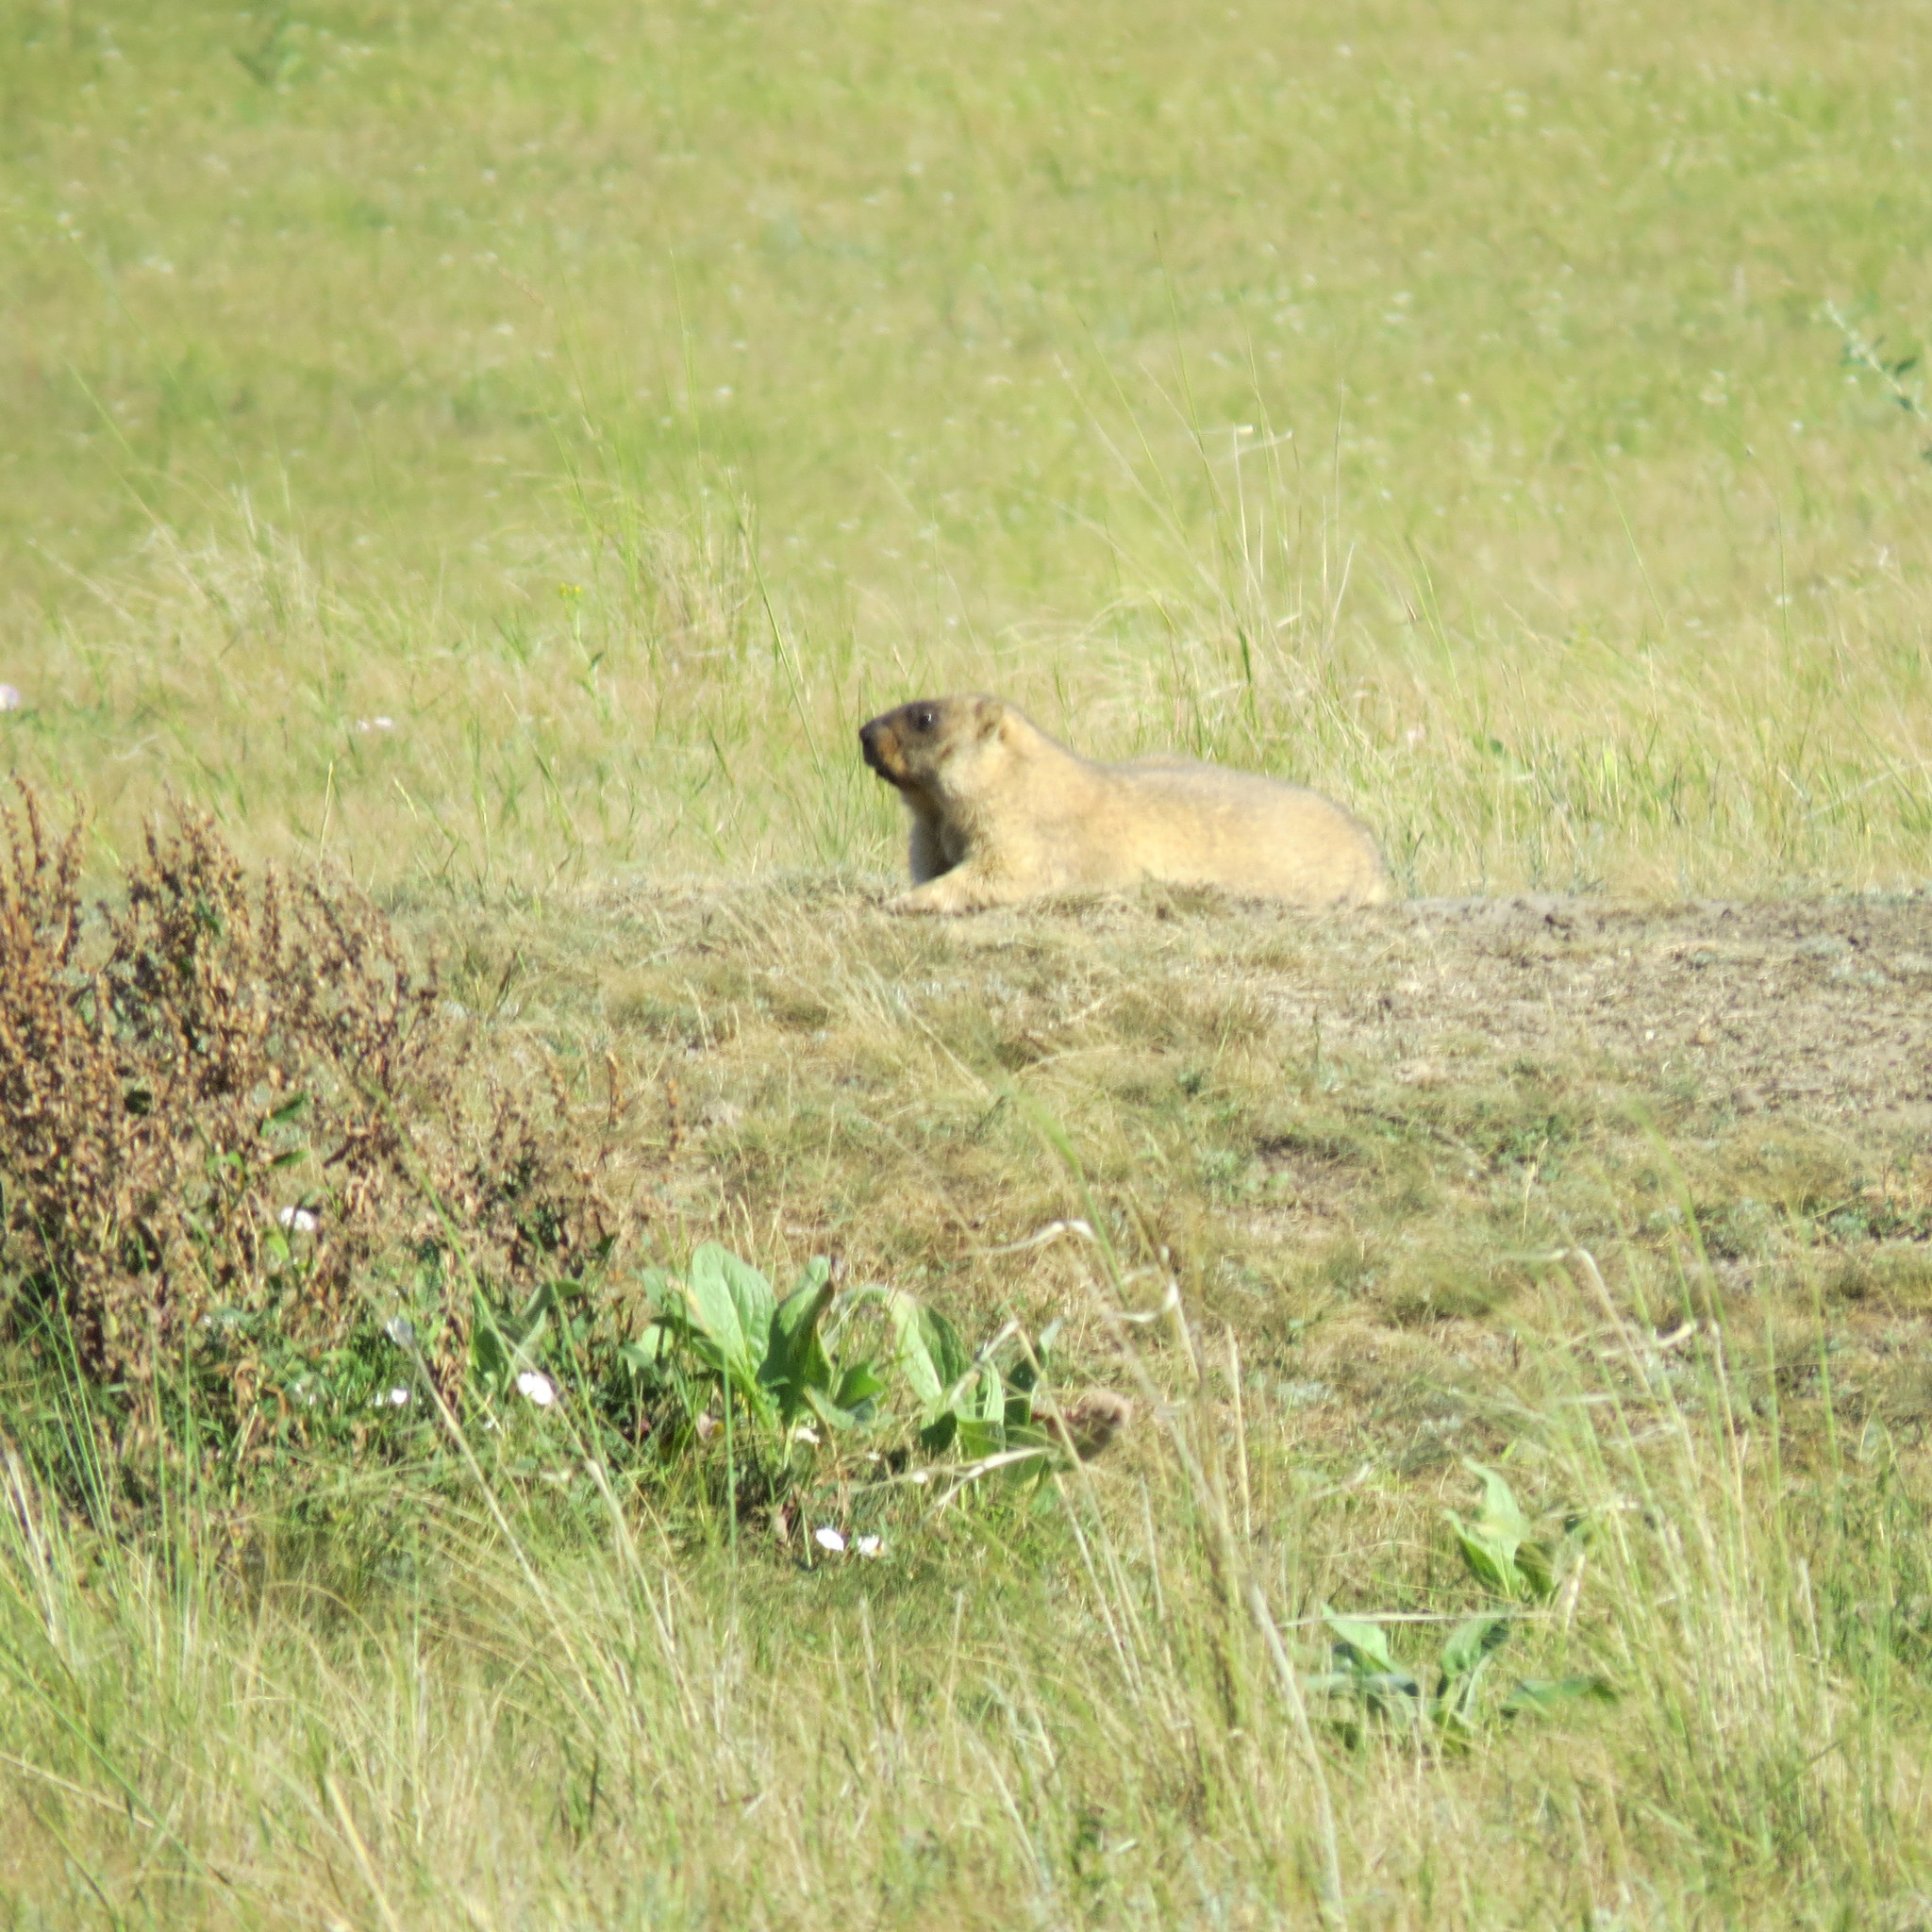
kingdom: Animalia
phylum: Chordata
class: Mammalia
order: Rodentia
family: Sciuridae
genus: Marmota
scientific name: Marmota bobak
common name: Bobak marmot
